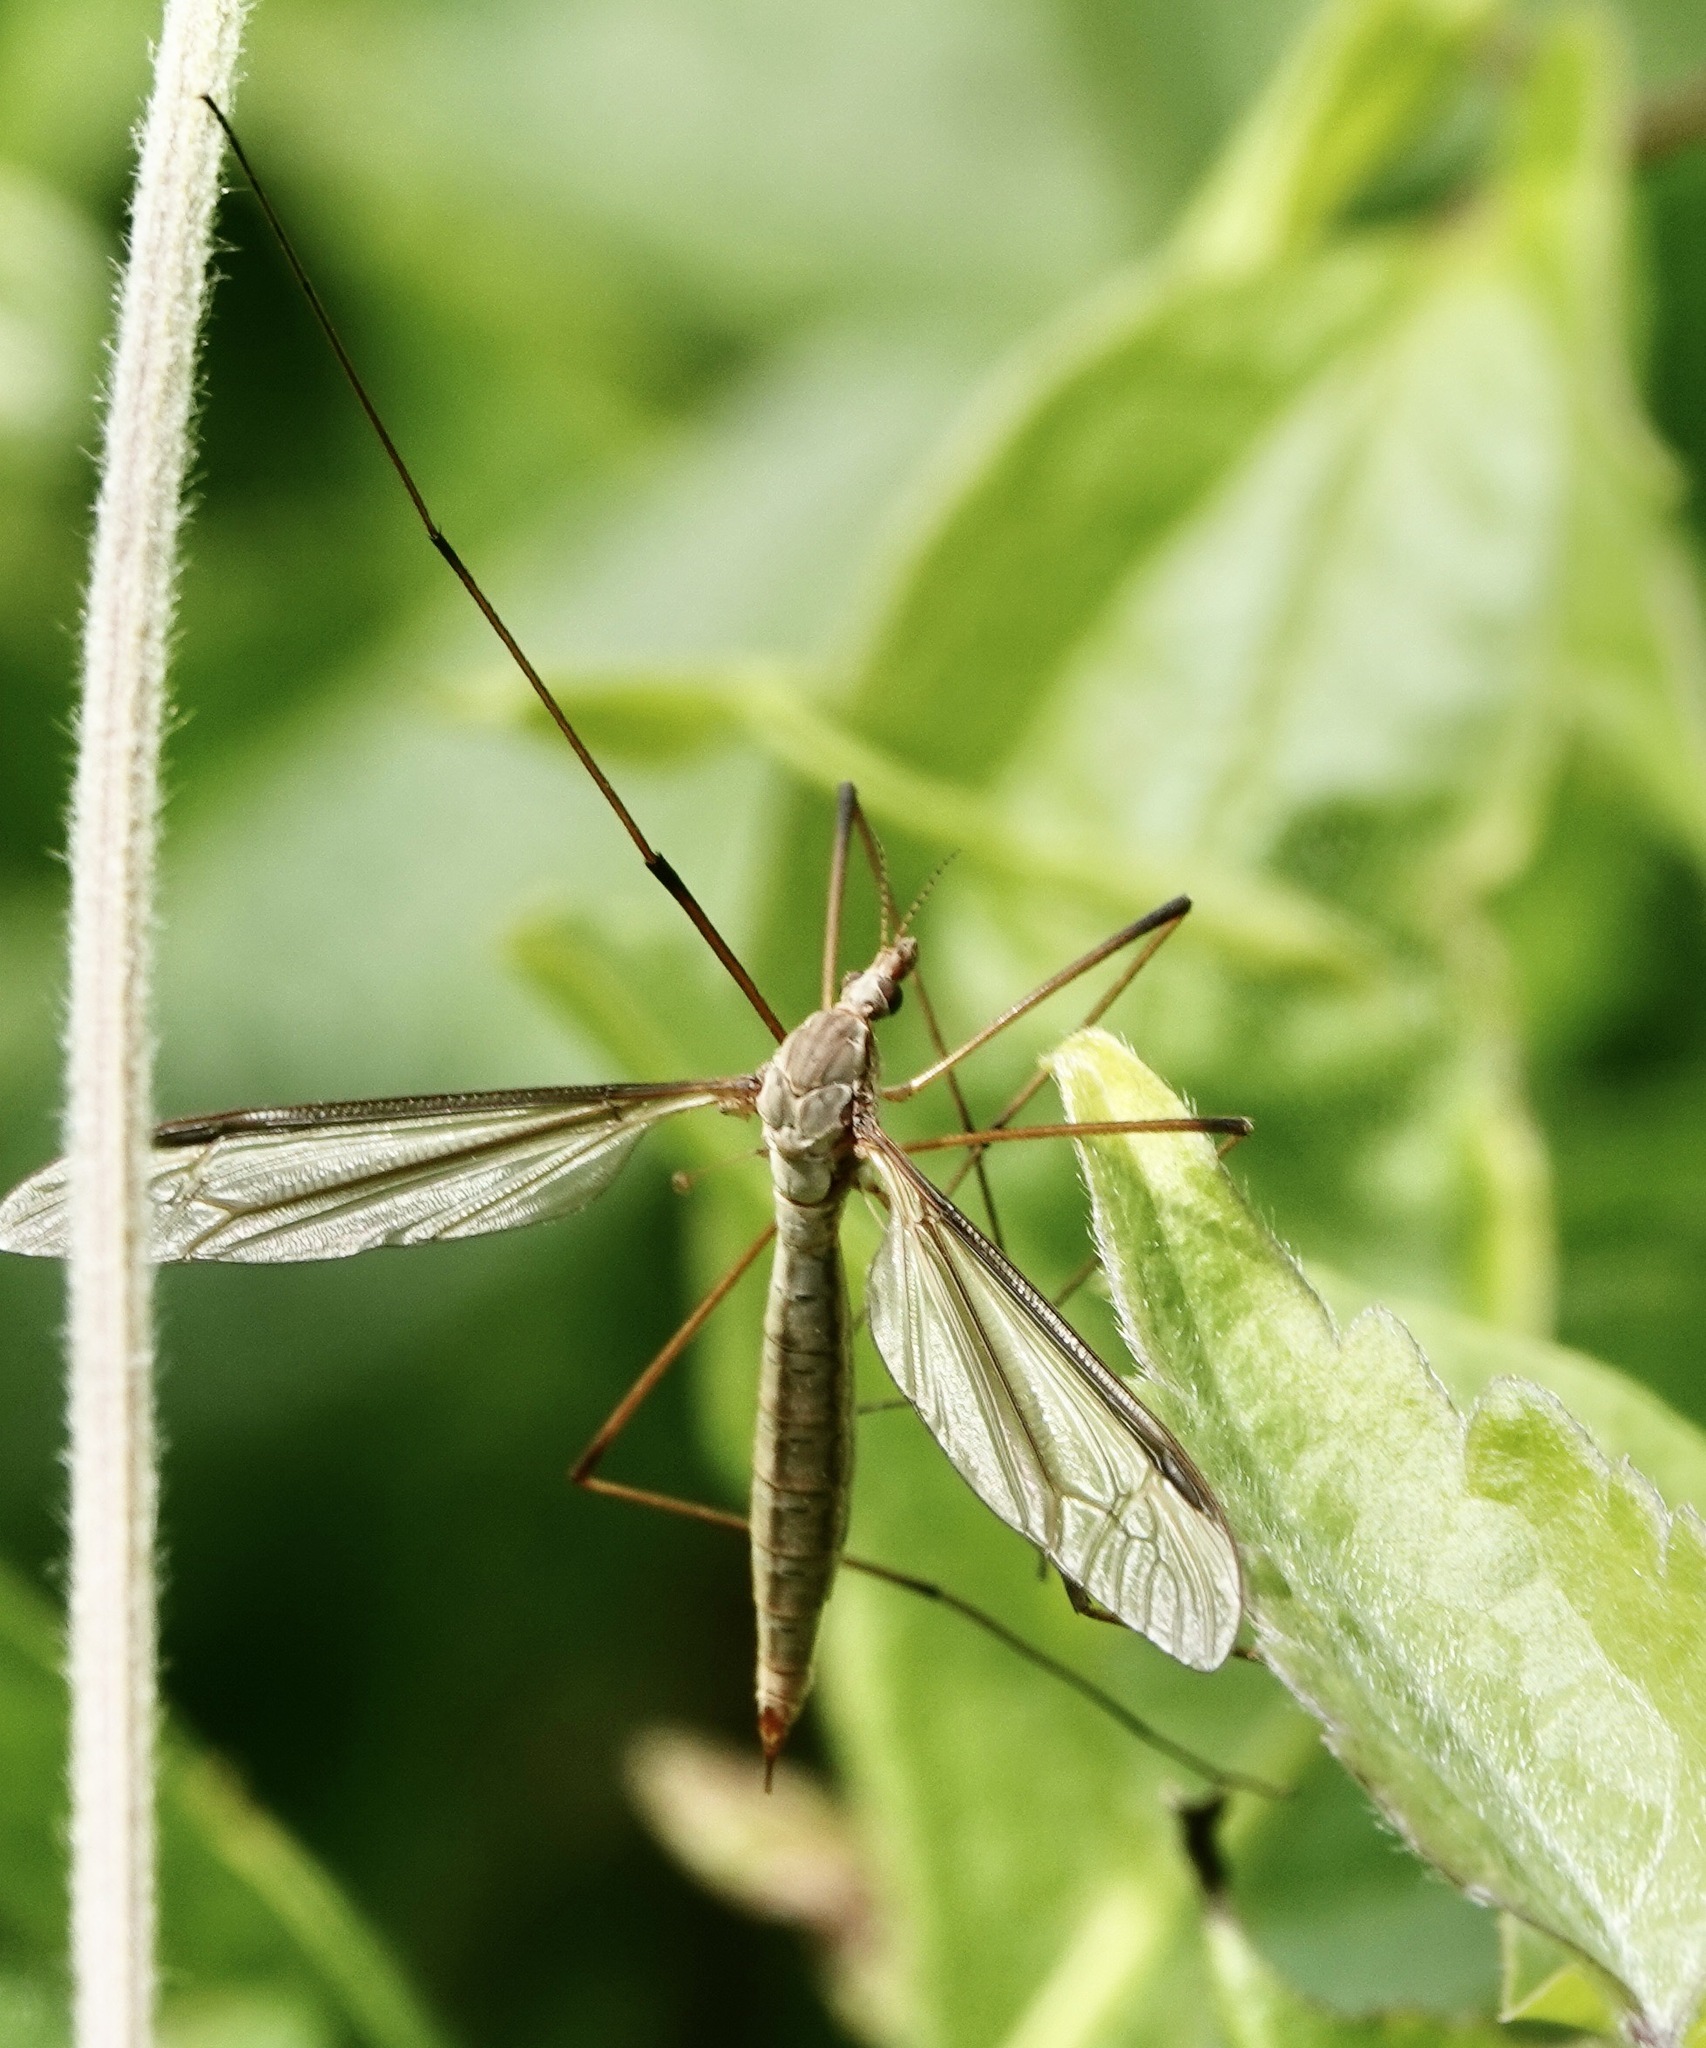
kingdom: Animalia
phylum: Arthropoda
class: Insecta
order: Diptera
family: Tipulidae
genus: Tipula
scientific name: Tipula oleracea
